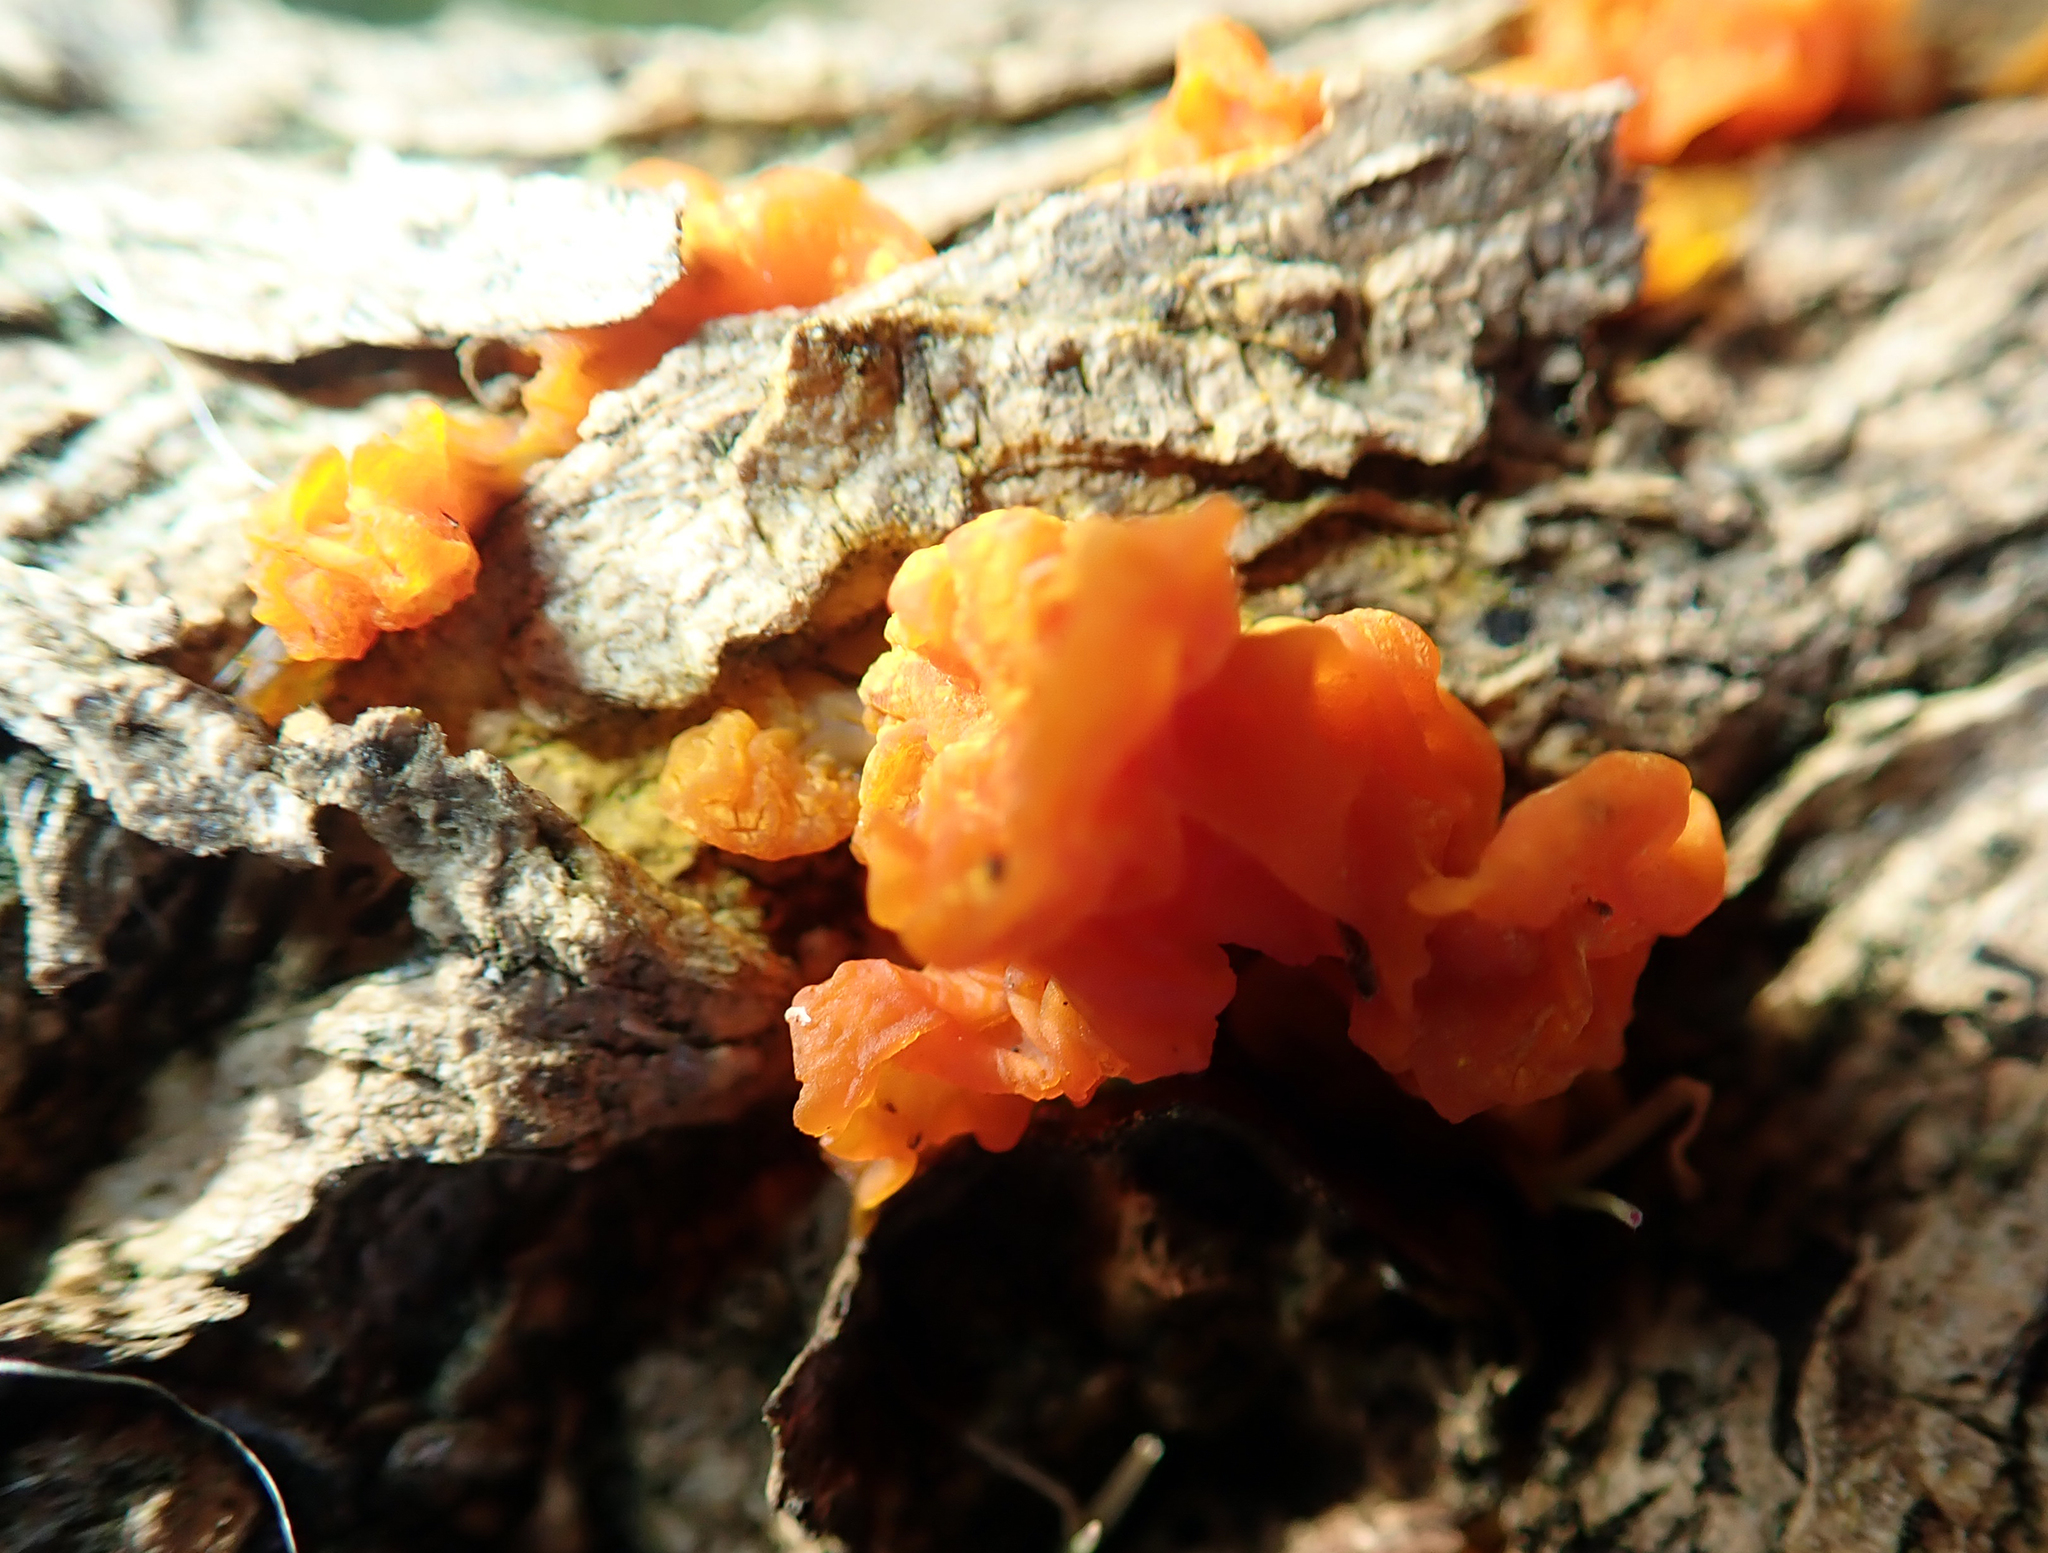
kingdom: Fungi
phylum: Basidiomycota
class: Tremellomycetes
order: Tremellales
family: Tremellaceae
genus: Tremella
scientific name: Tremella mesenterica
